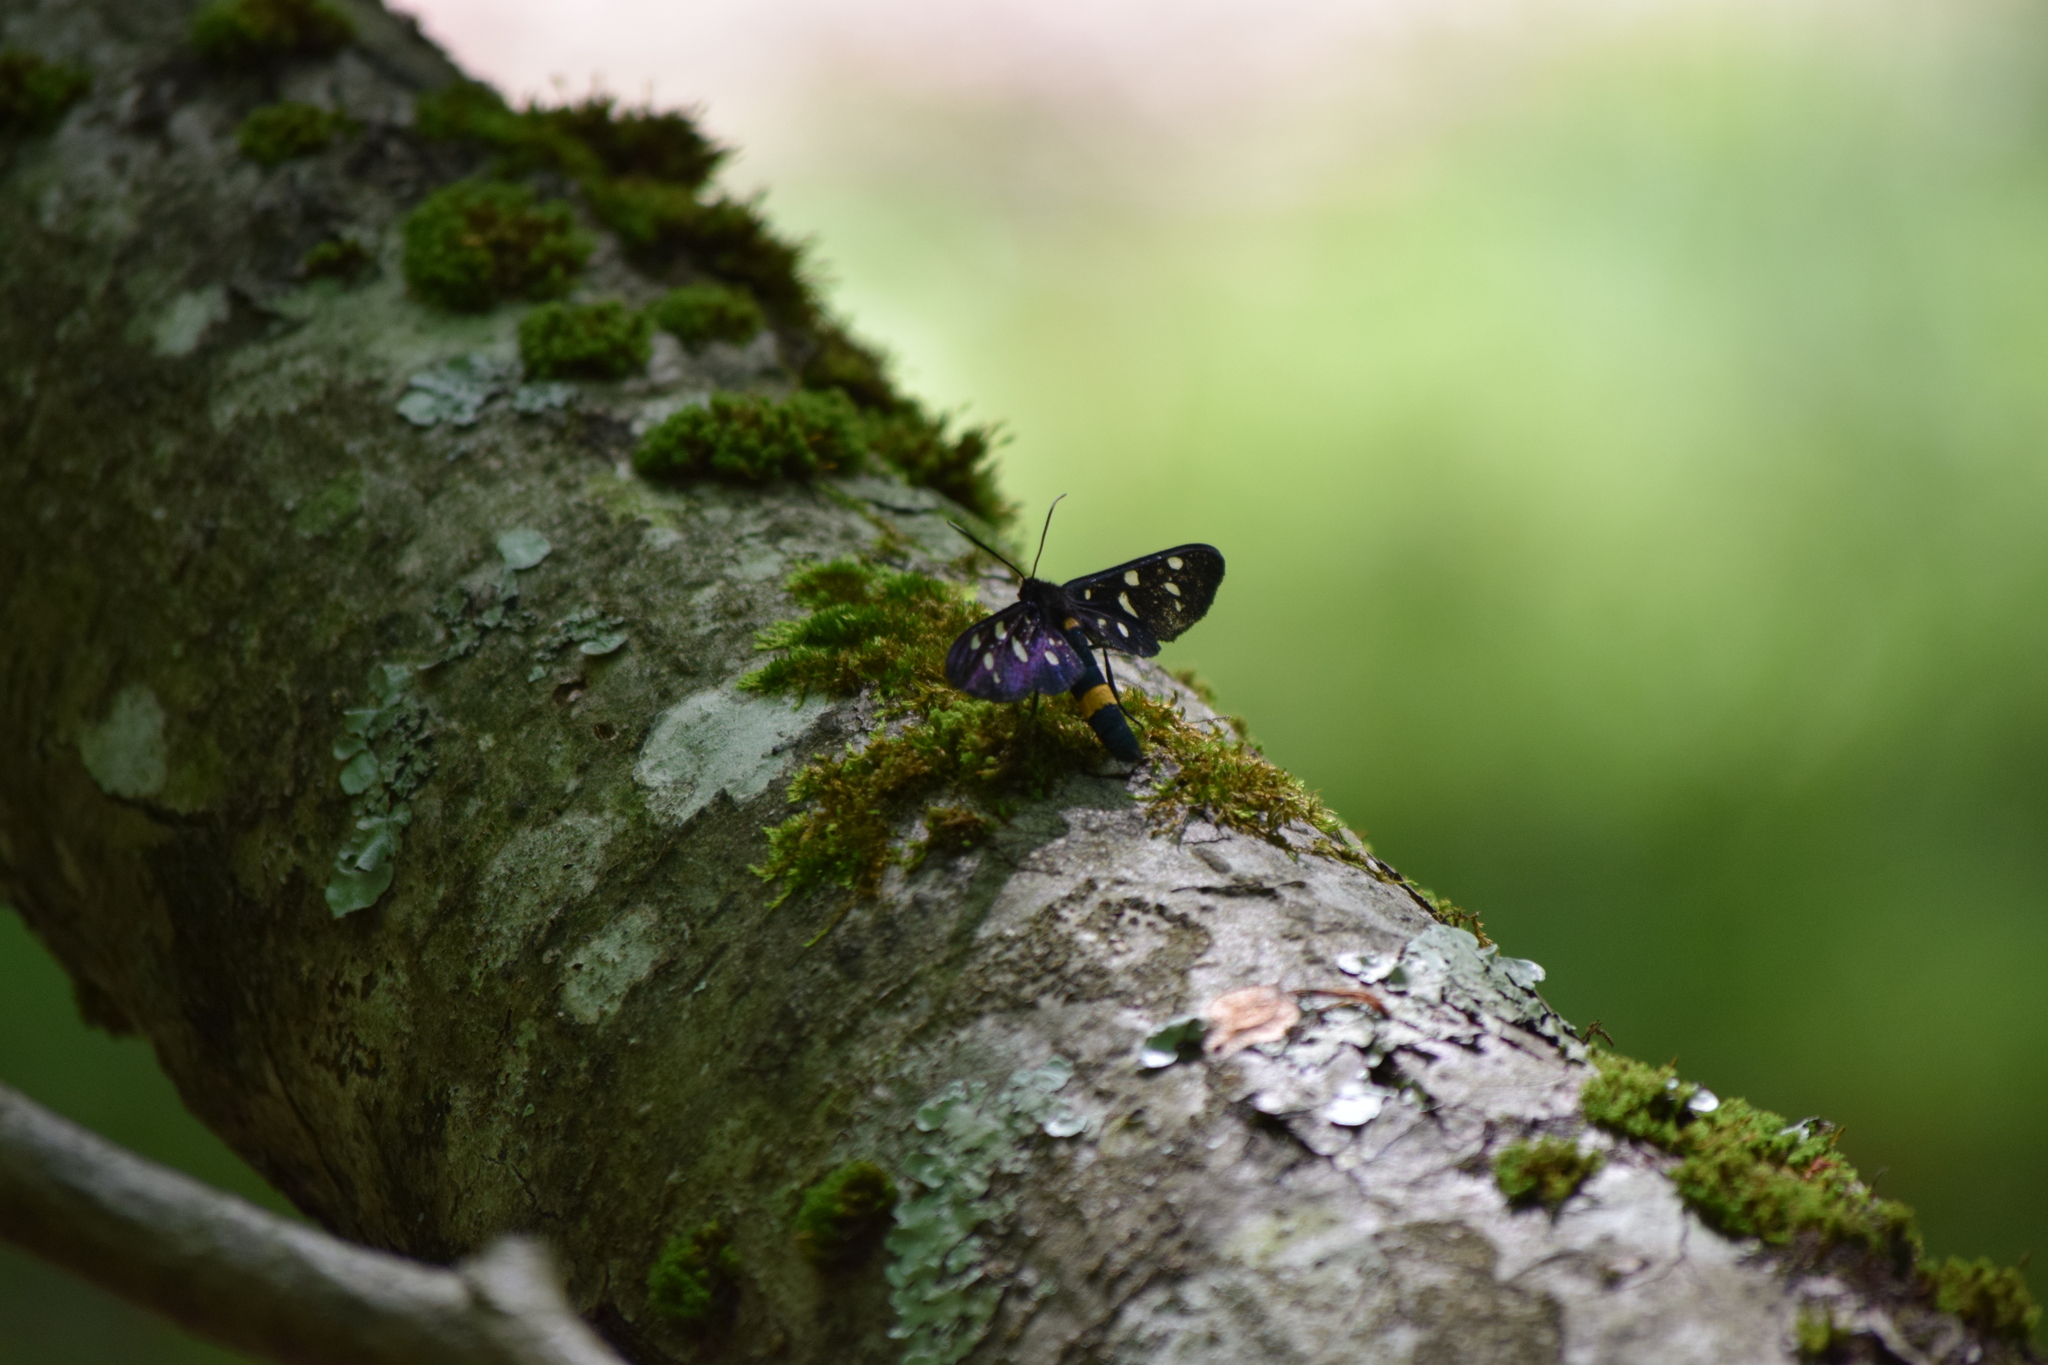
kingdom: Animalia
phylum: Arthropoda
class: Insecta
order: Lepidoptera
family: Erebidae
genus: Amata
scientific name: Amata phegea
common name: Nine-spotted
